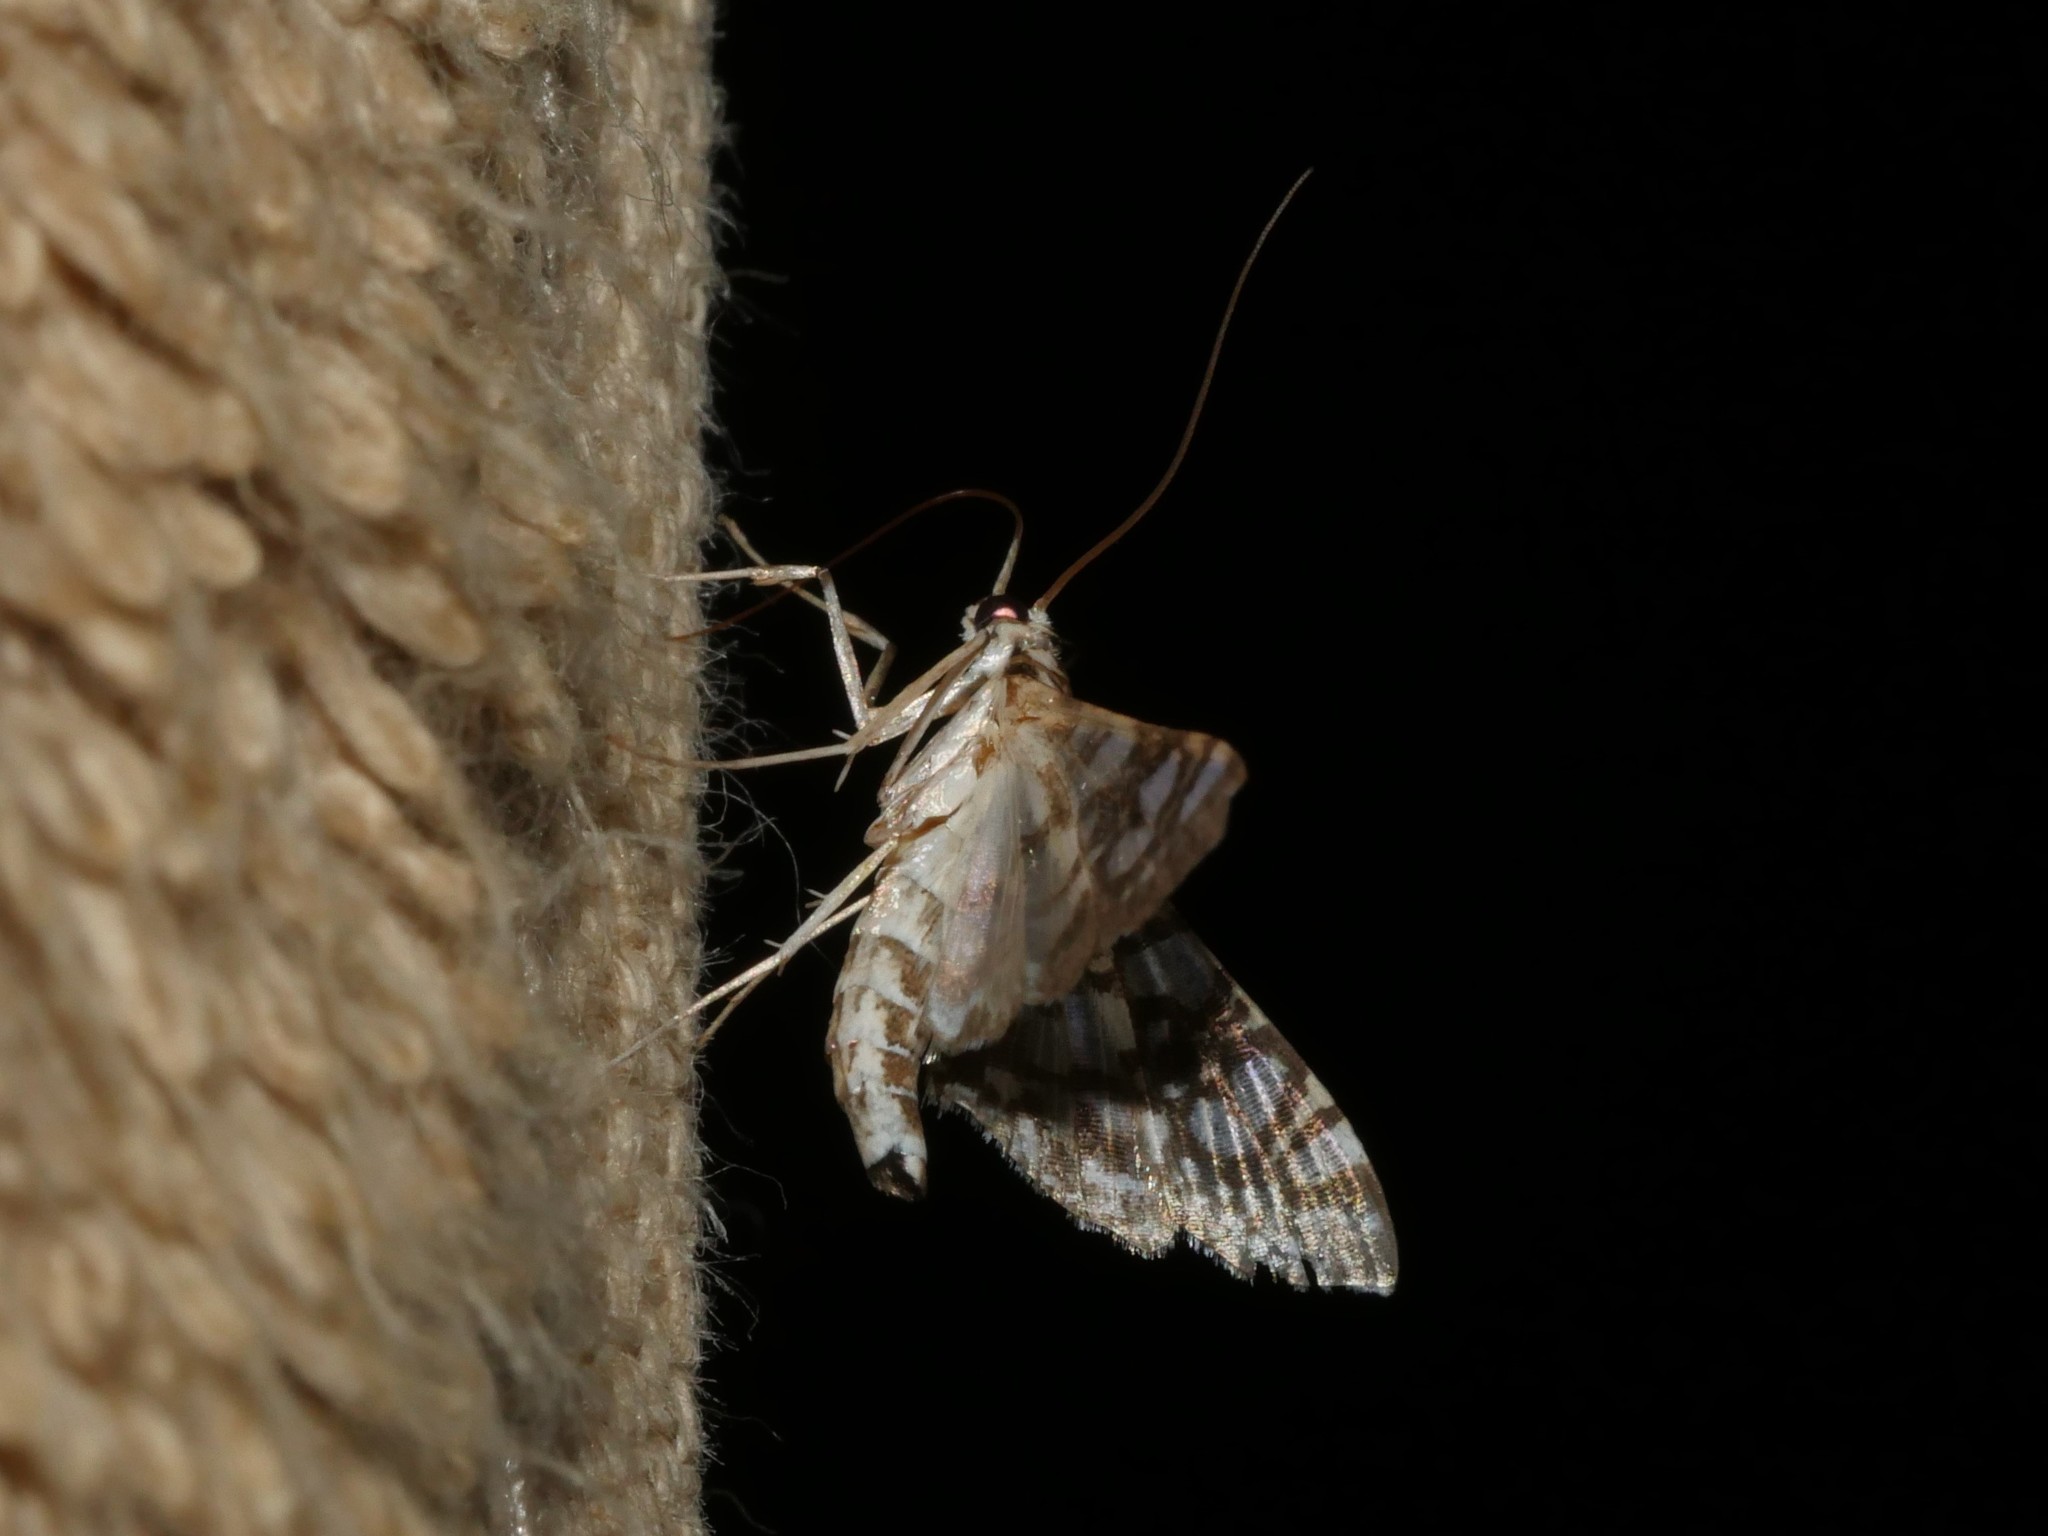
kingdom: Animalia
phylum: Arthropoda
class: Insecta
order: Lepidoptera
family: Crambidae
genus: Glyphodes
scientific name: Glyphodes onychinalis
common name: Swan plant moth
